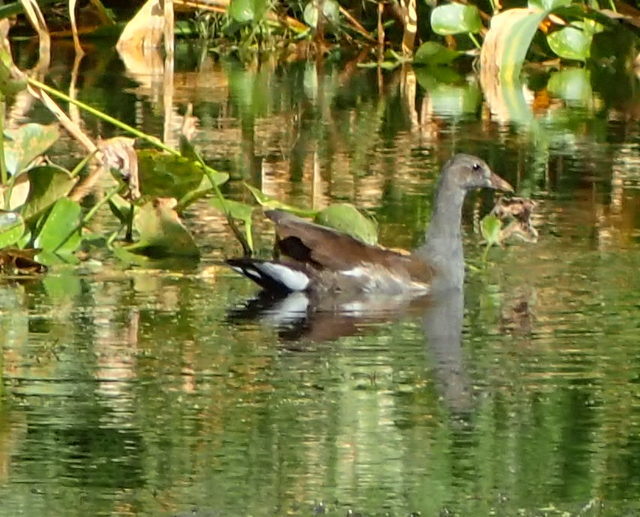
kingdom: Animalia
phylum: Chordata
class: Aves
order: Gruiformes
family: Rallidae
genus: Gallinula
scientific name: Gallinula chloropus
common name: Common moorhen
